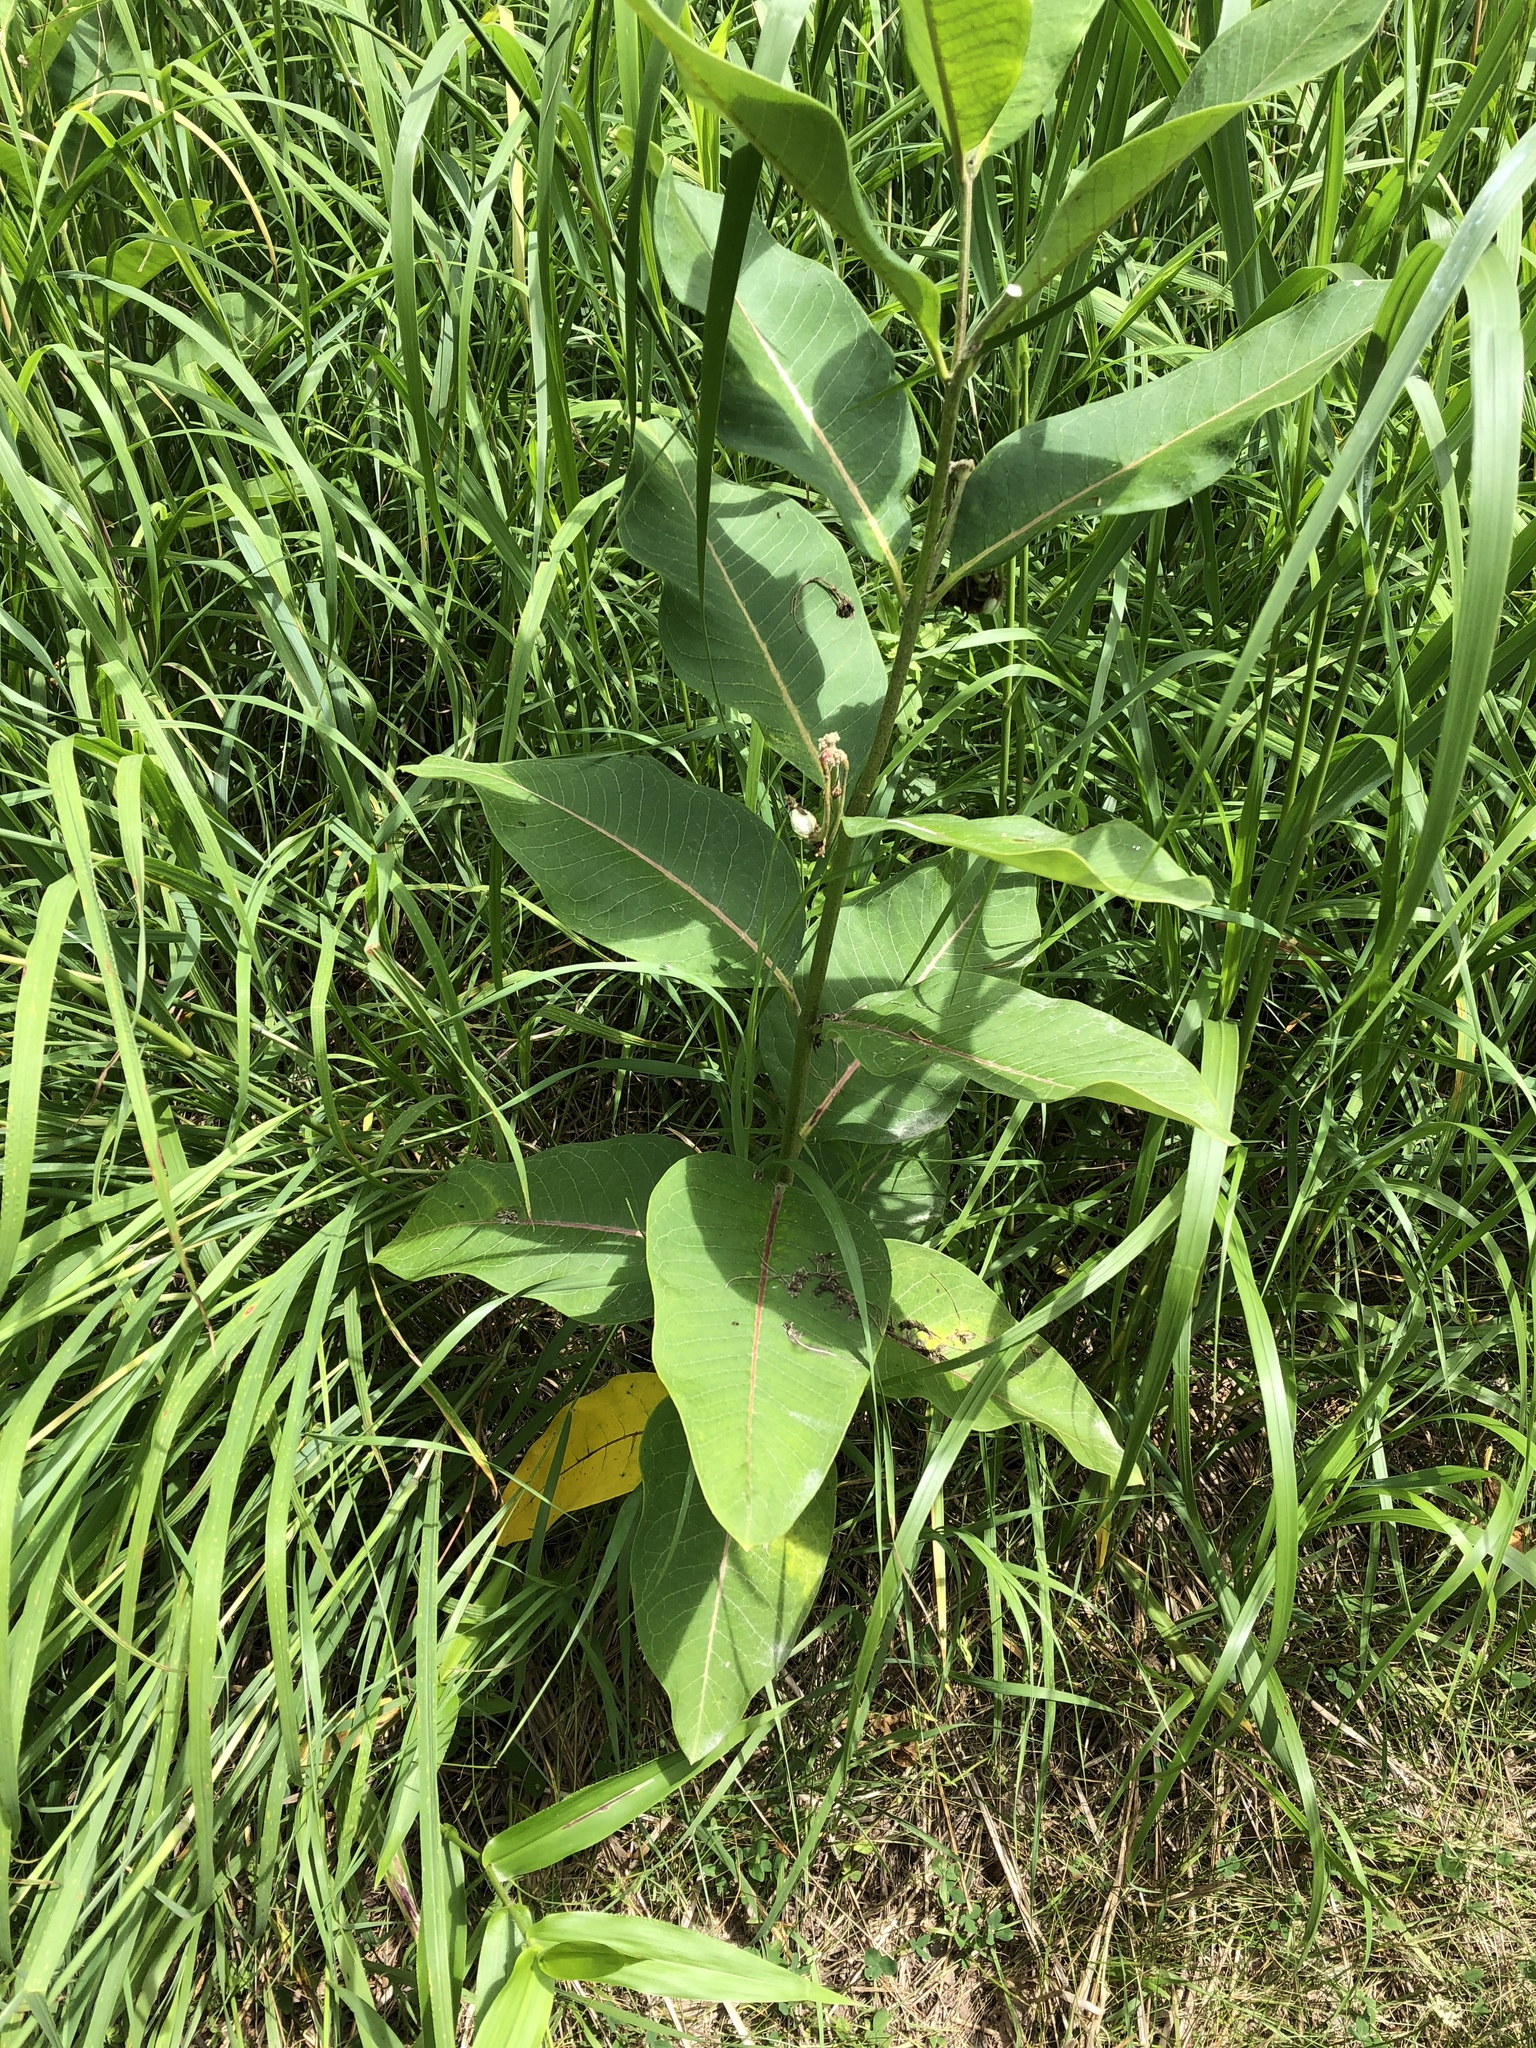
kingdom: Plantae
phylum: Tracheophyta
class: Magnoliopsida
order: Gentianales
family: Apocynaceae
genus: Asclepias
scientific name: Asclepias syriaca
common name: Common milkweed
